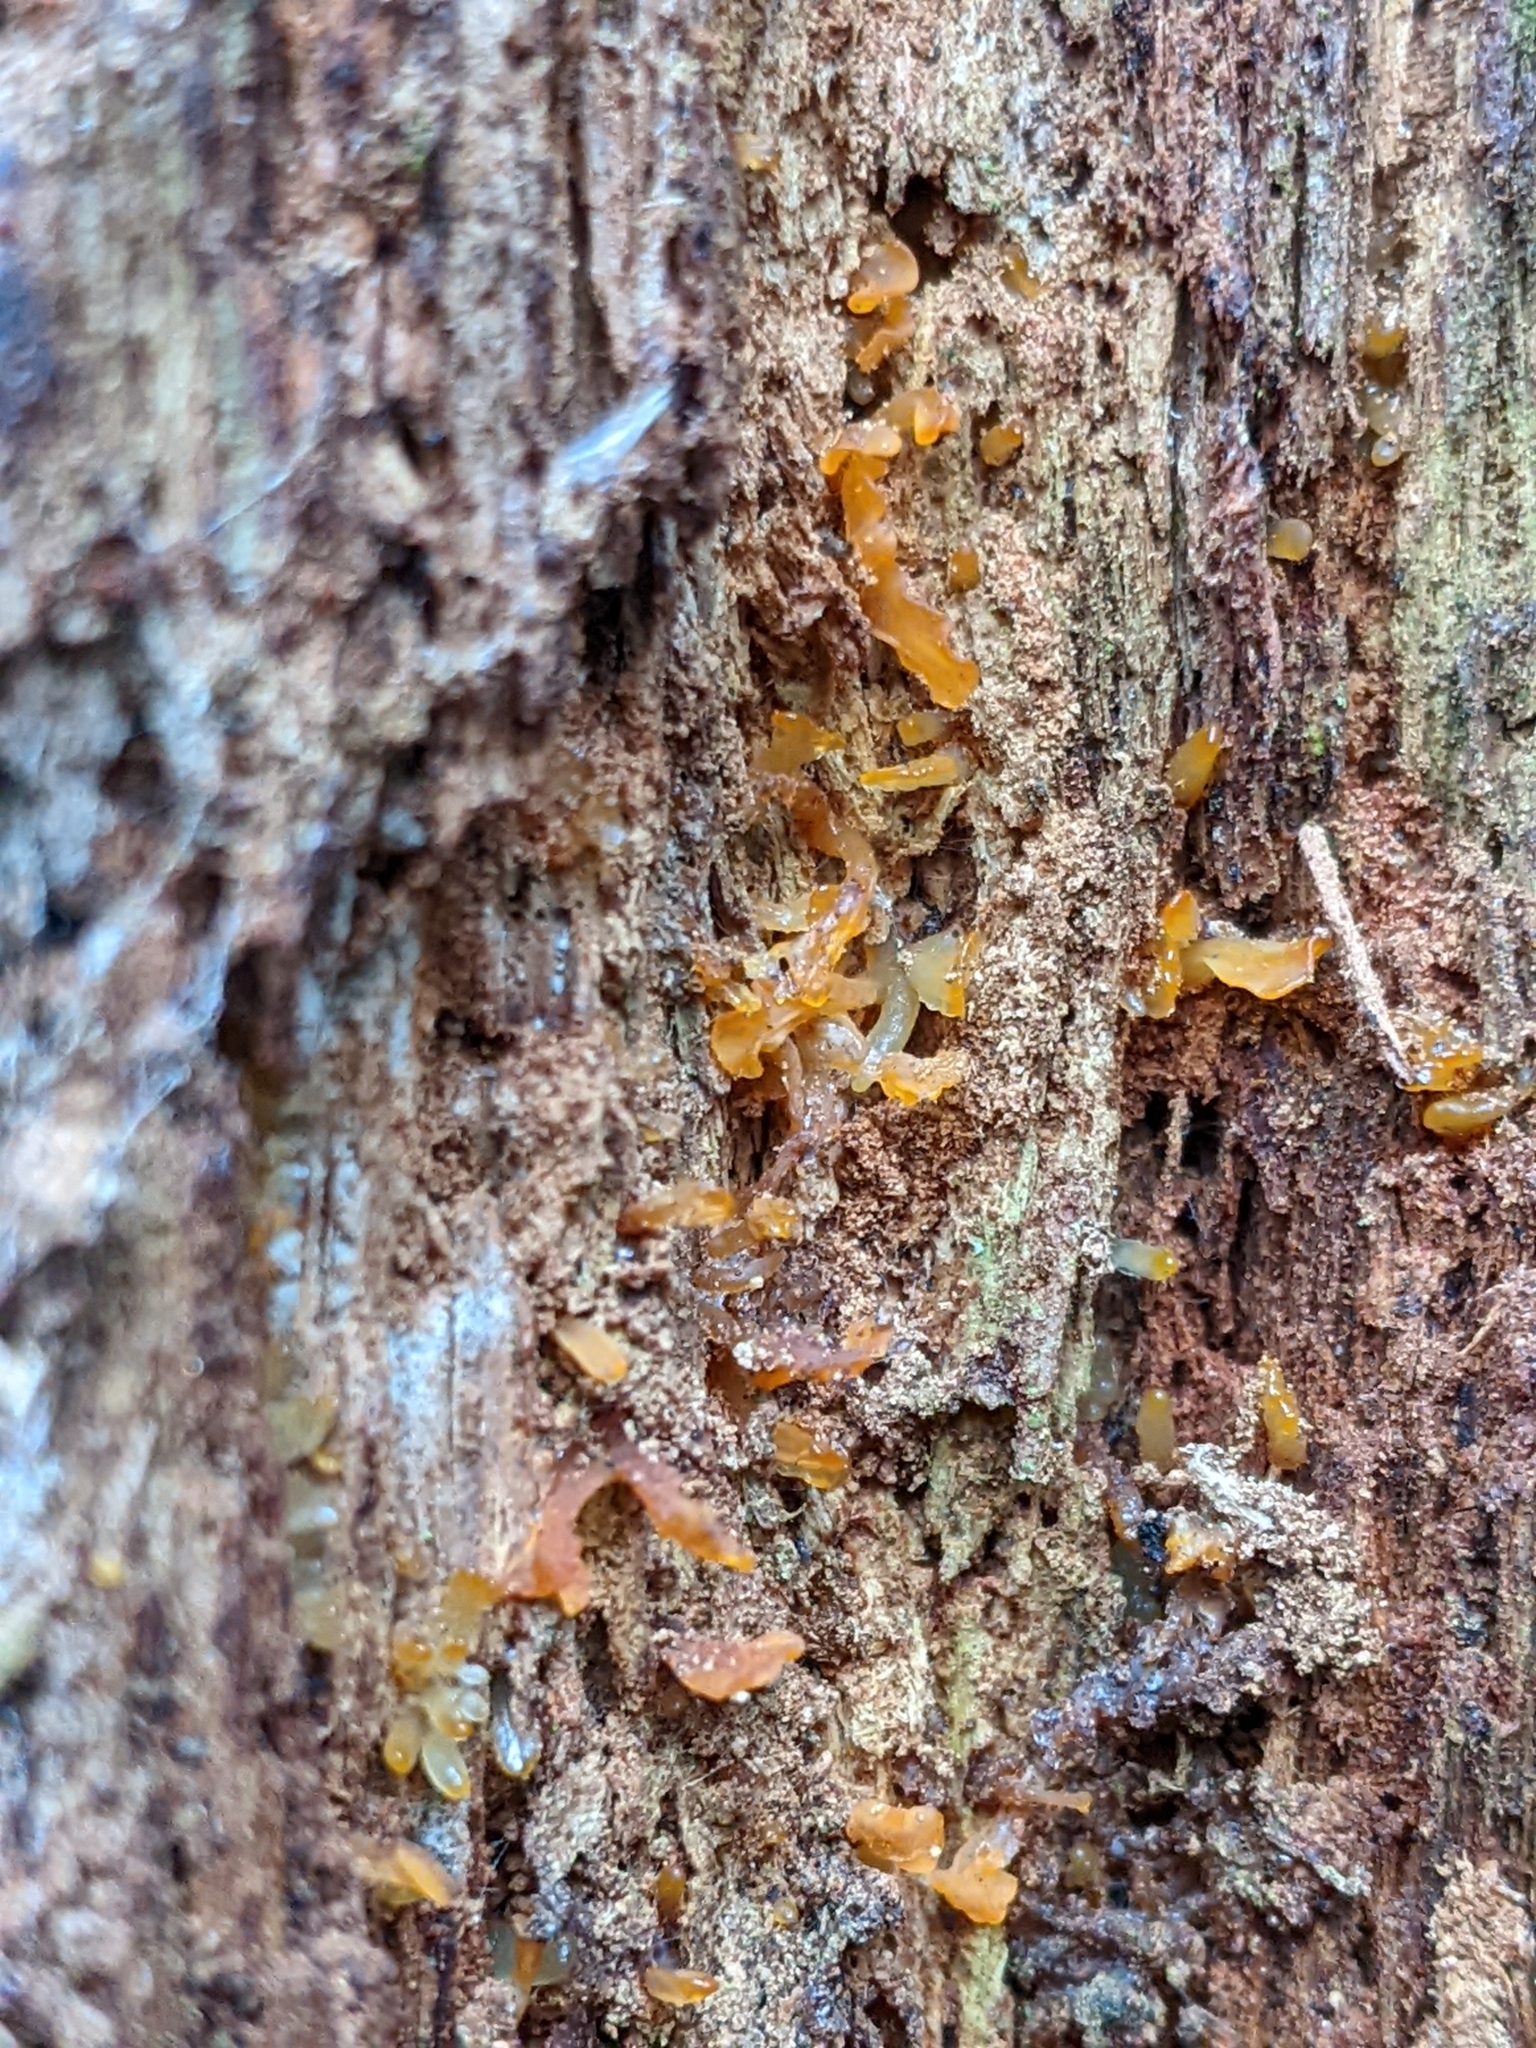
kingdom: Fungi
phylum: Basidiomycota
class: Dacrymycetes
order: Dacrymycetales
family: Dacrymycetaceae
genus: Calocera
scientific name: Calocera cornea
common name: Small stagshorn
